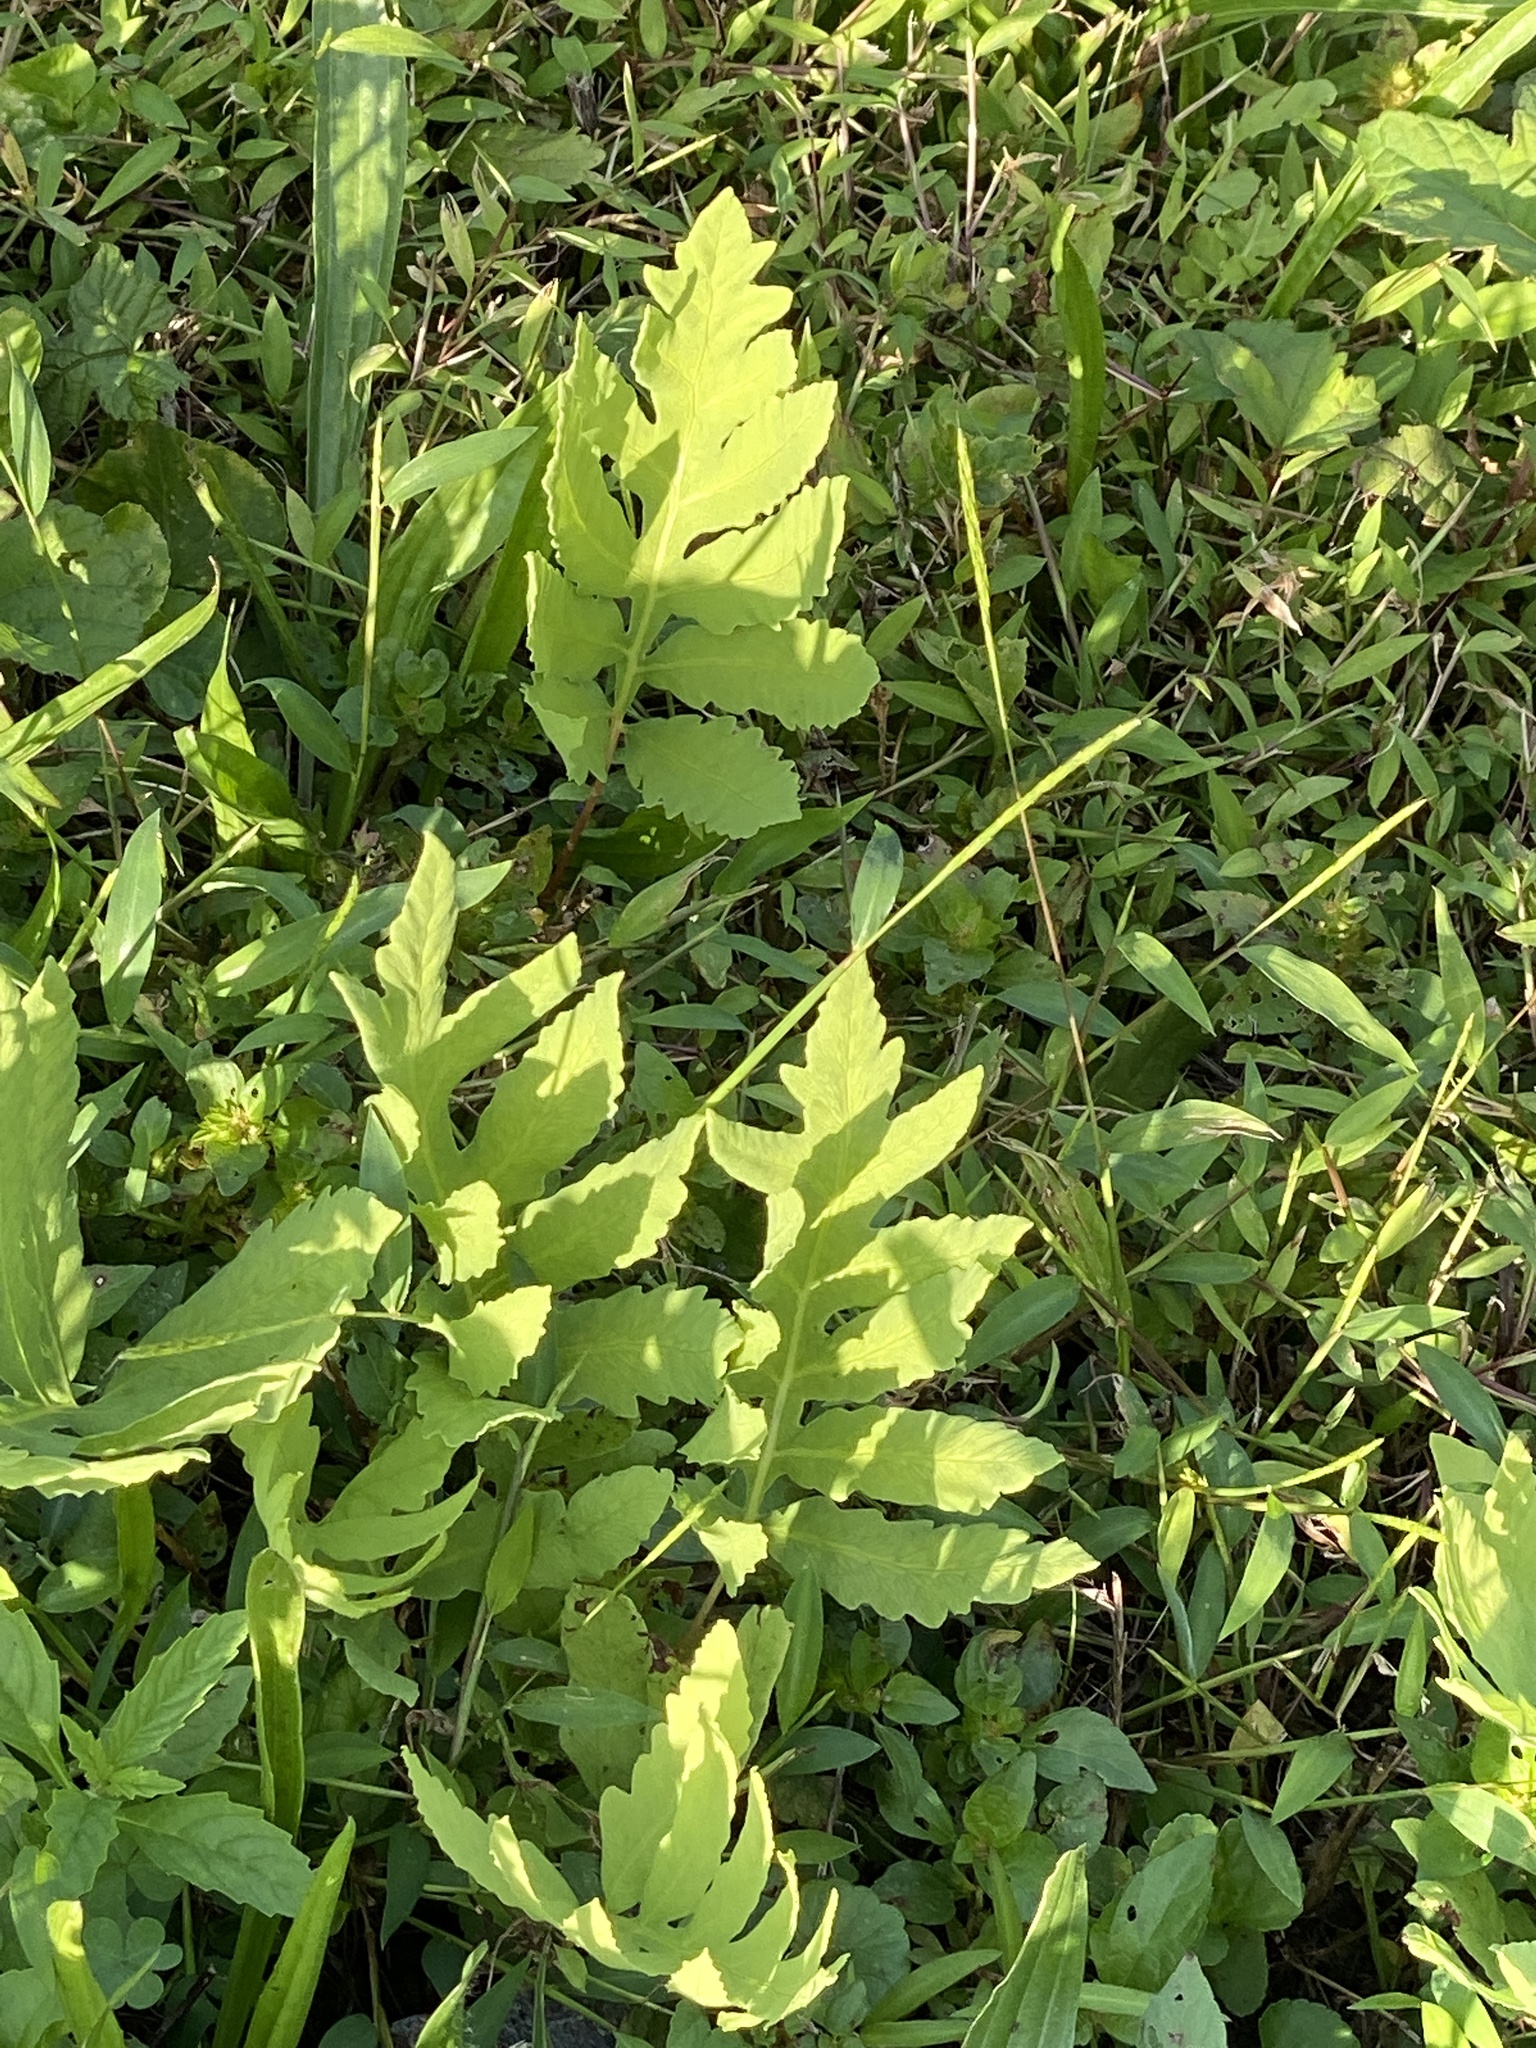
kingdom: Plantae
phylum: Tracheophyta
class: Polypodiopsida
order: Polypodiales
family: Onocleaceae
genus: Onoclea
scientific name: Onoclea sensibilis
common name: Sensitive fern
